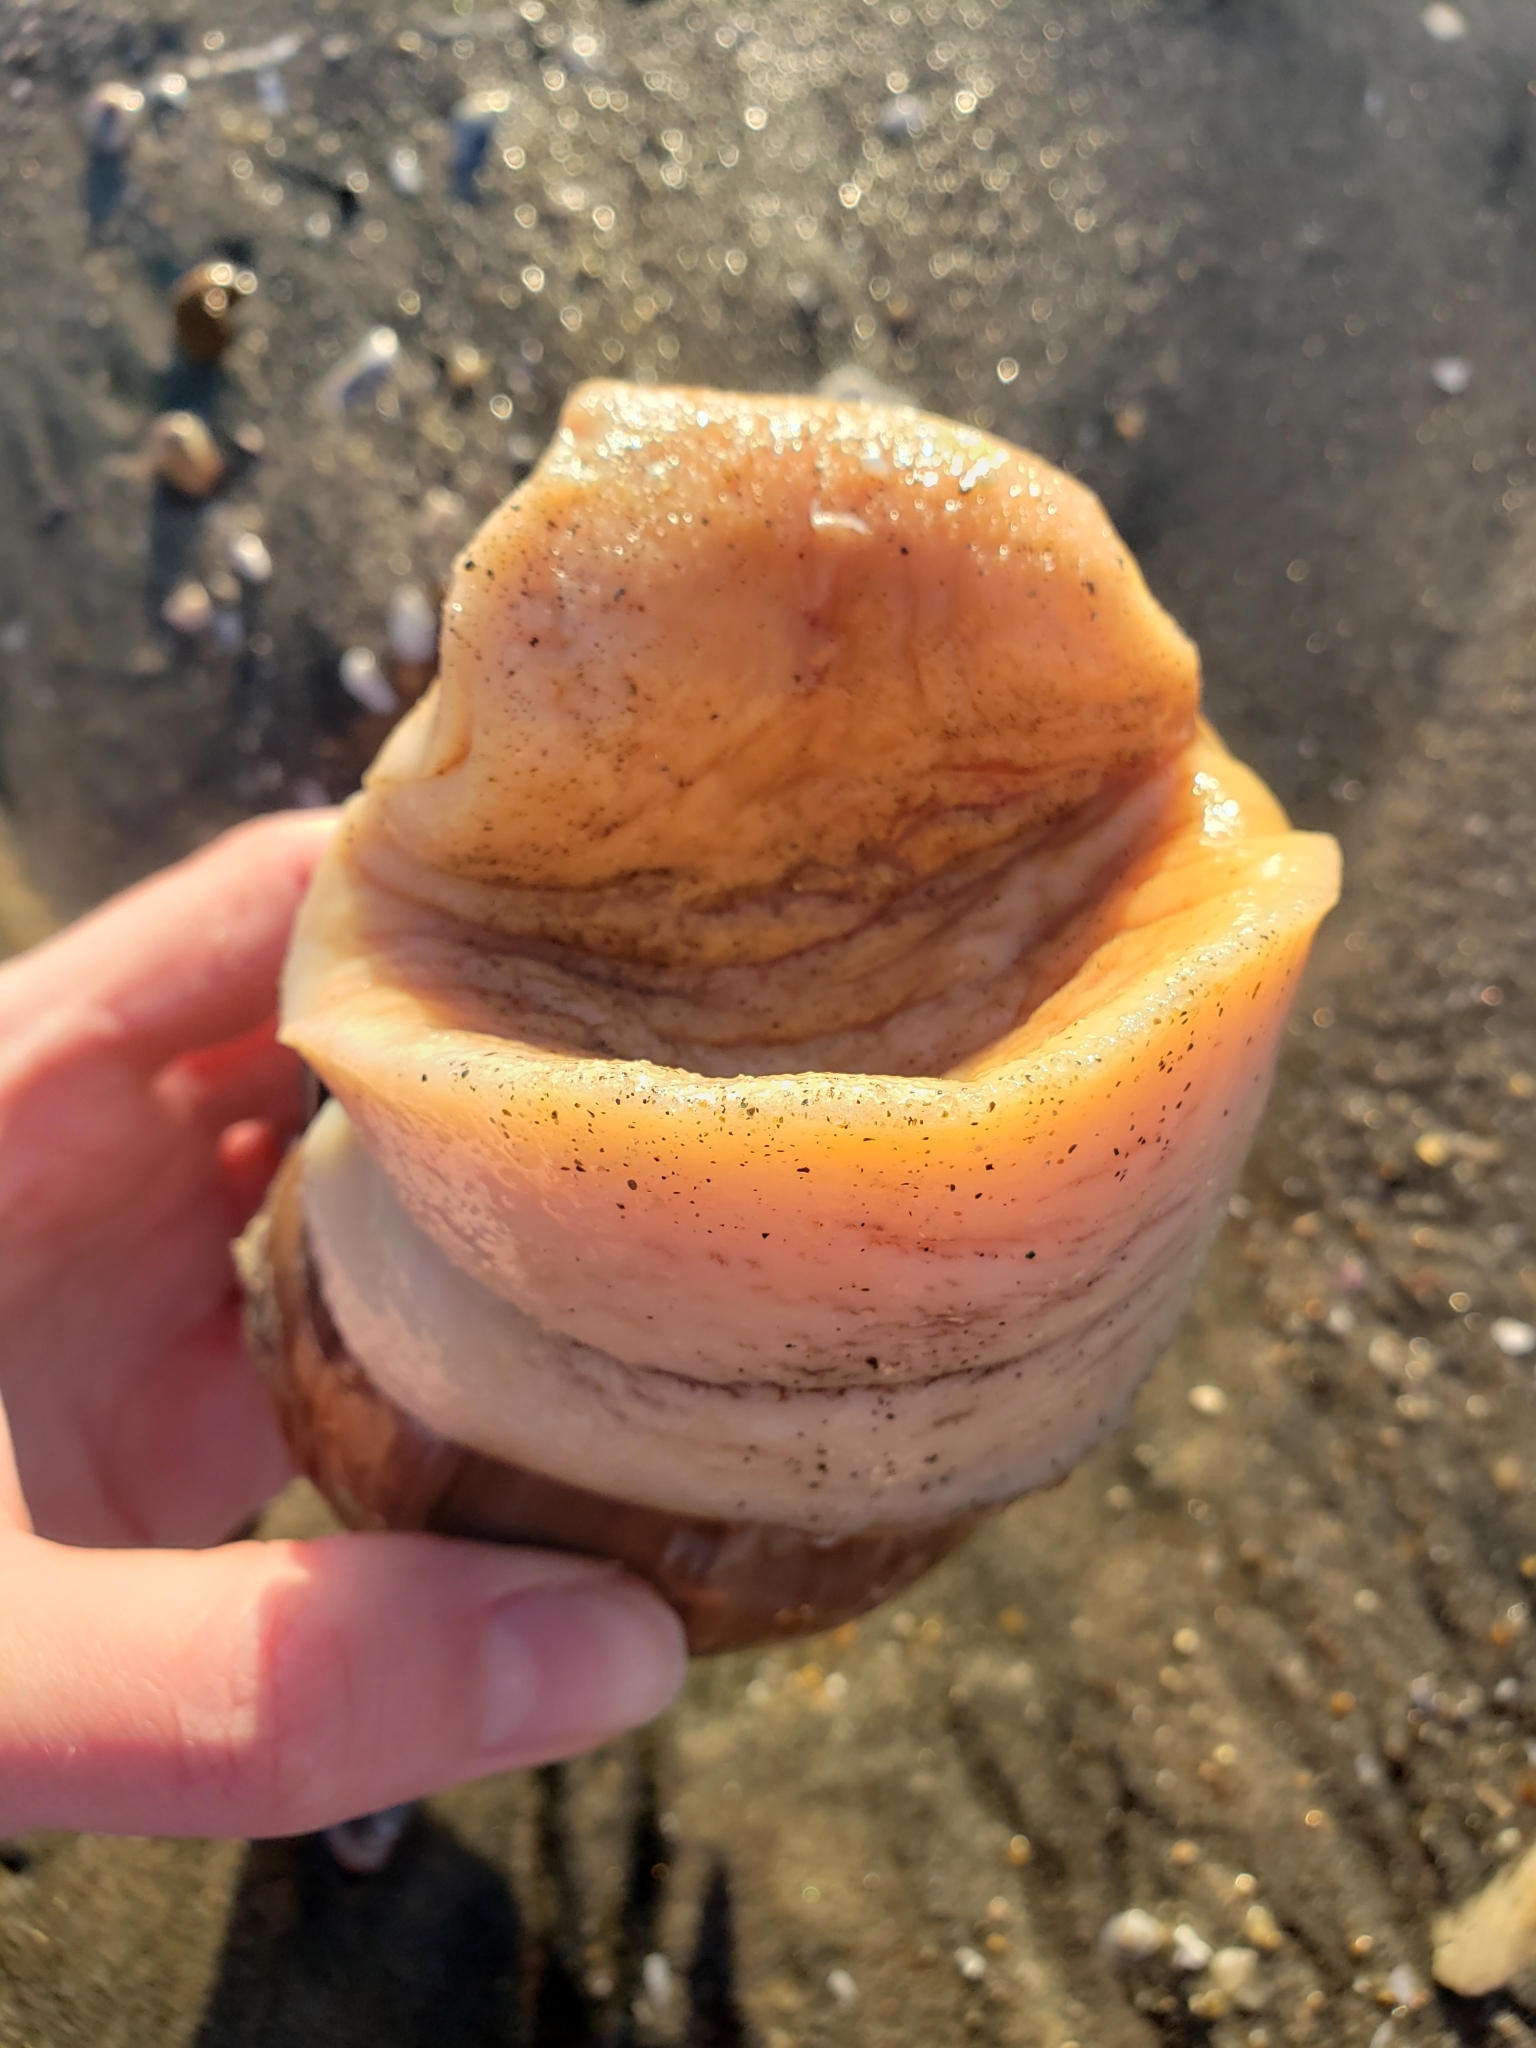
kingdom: Animalia
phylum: Mollusca
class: Gastropoda
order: Littorinimorpha
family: Naticidae
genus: Neverita
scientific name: Neverita lewisii
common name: Lewis' moonsnail
